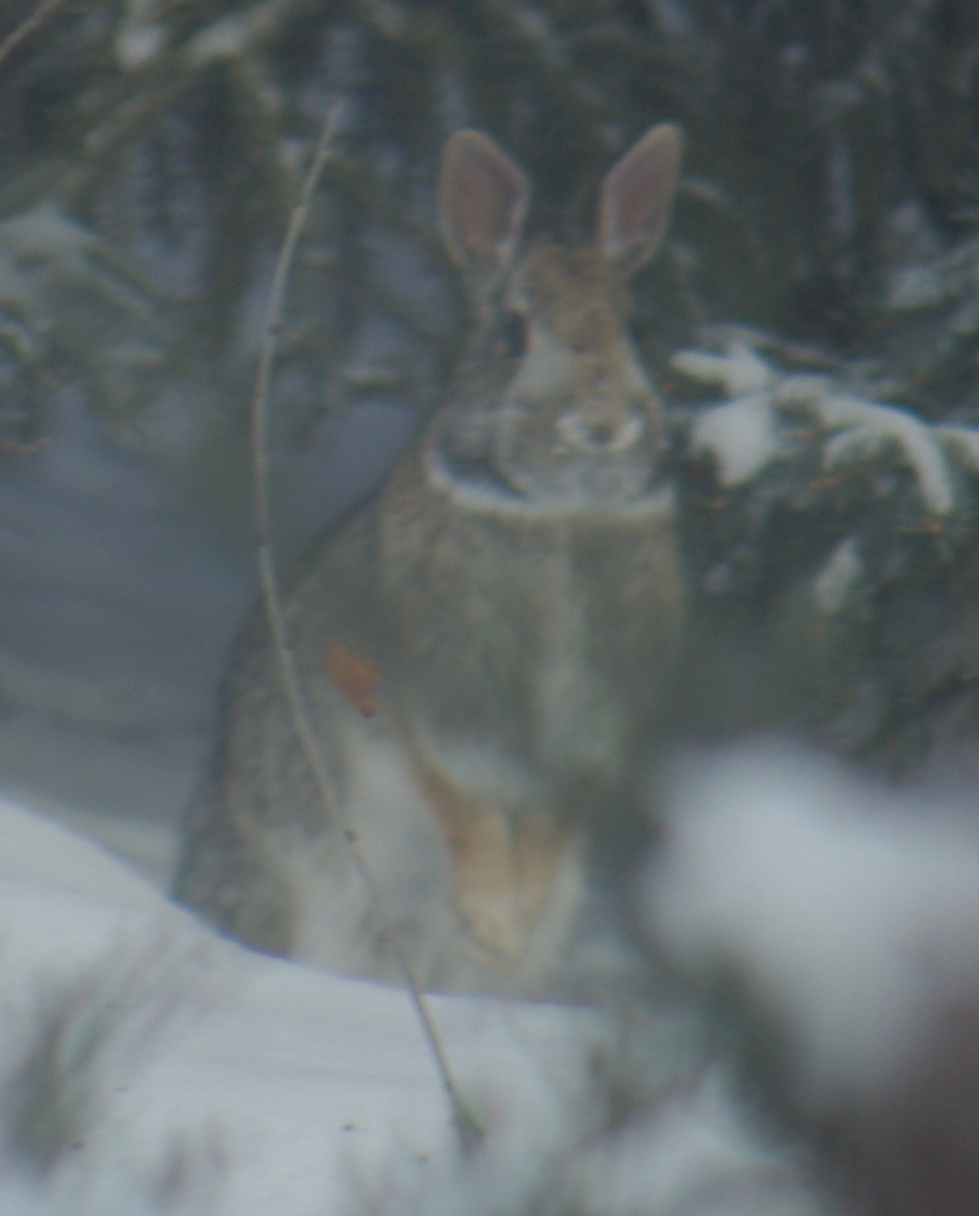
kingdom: Animalia
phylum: Chordata
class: Mammalia
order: Lagomorpha
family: Leporidae
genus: Sylvilagus
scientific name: Sylvilagus floridanus
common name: Eastern cottontail
